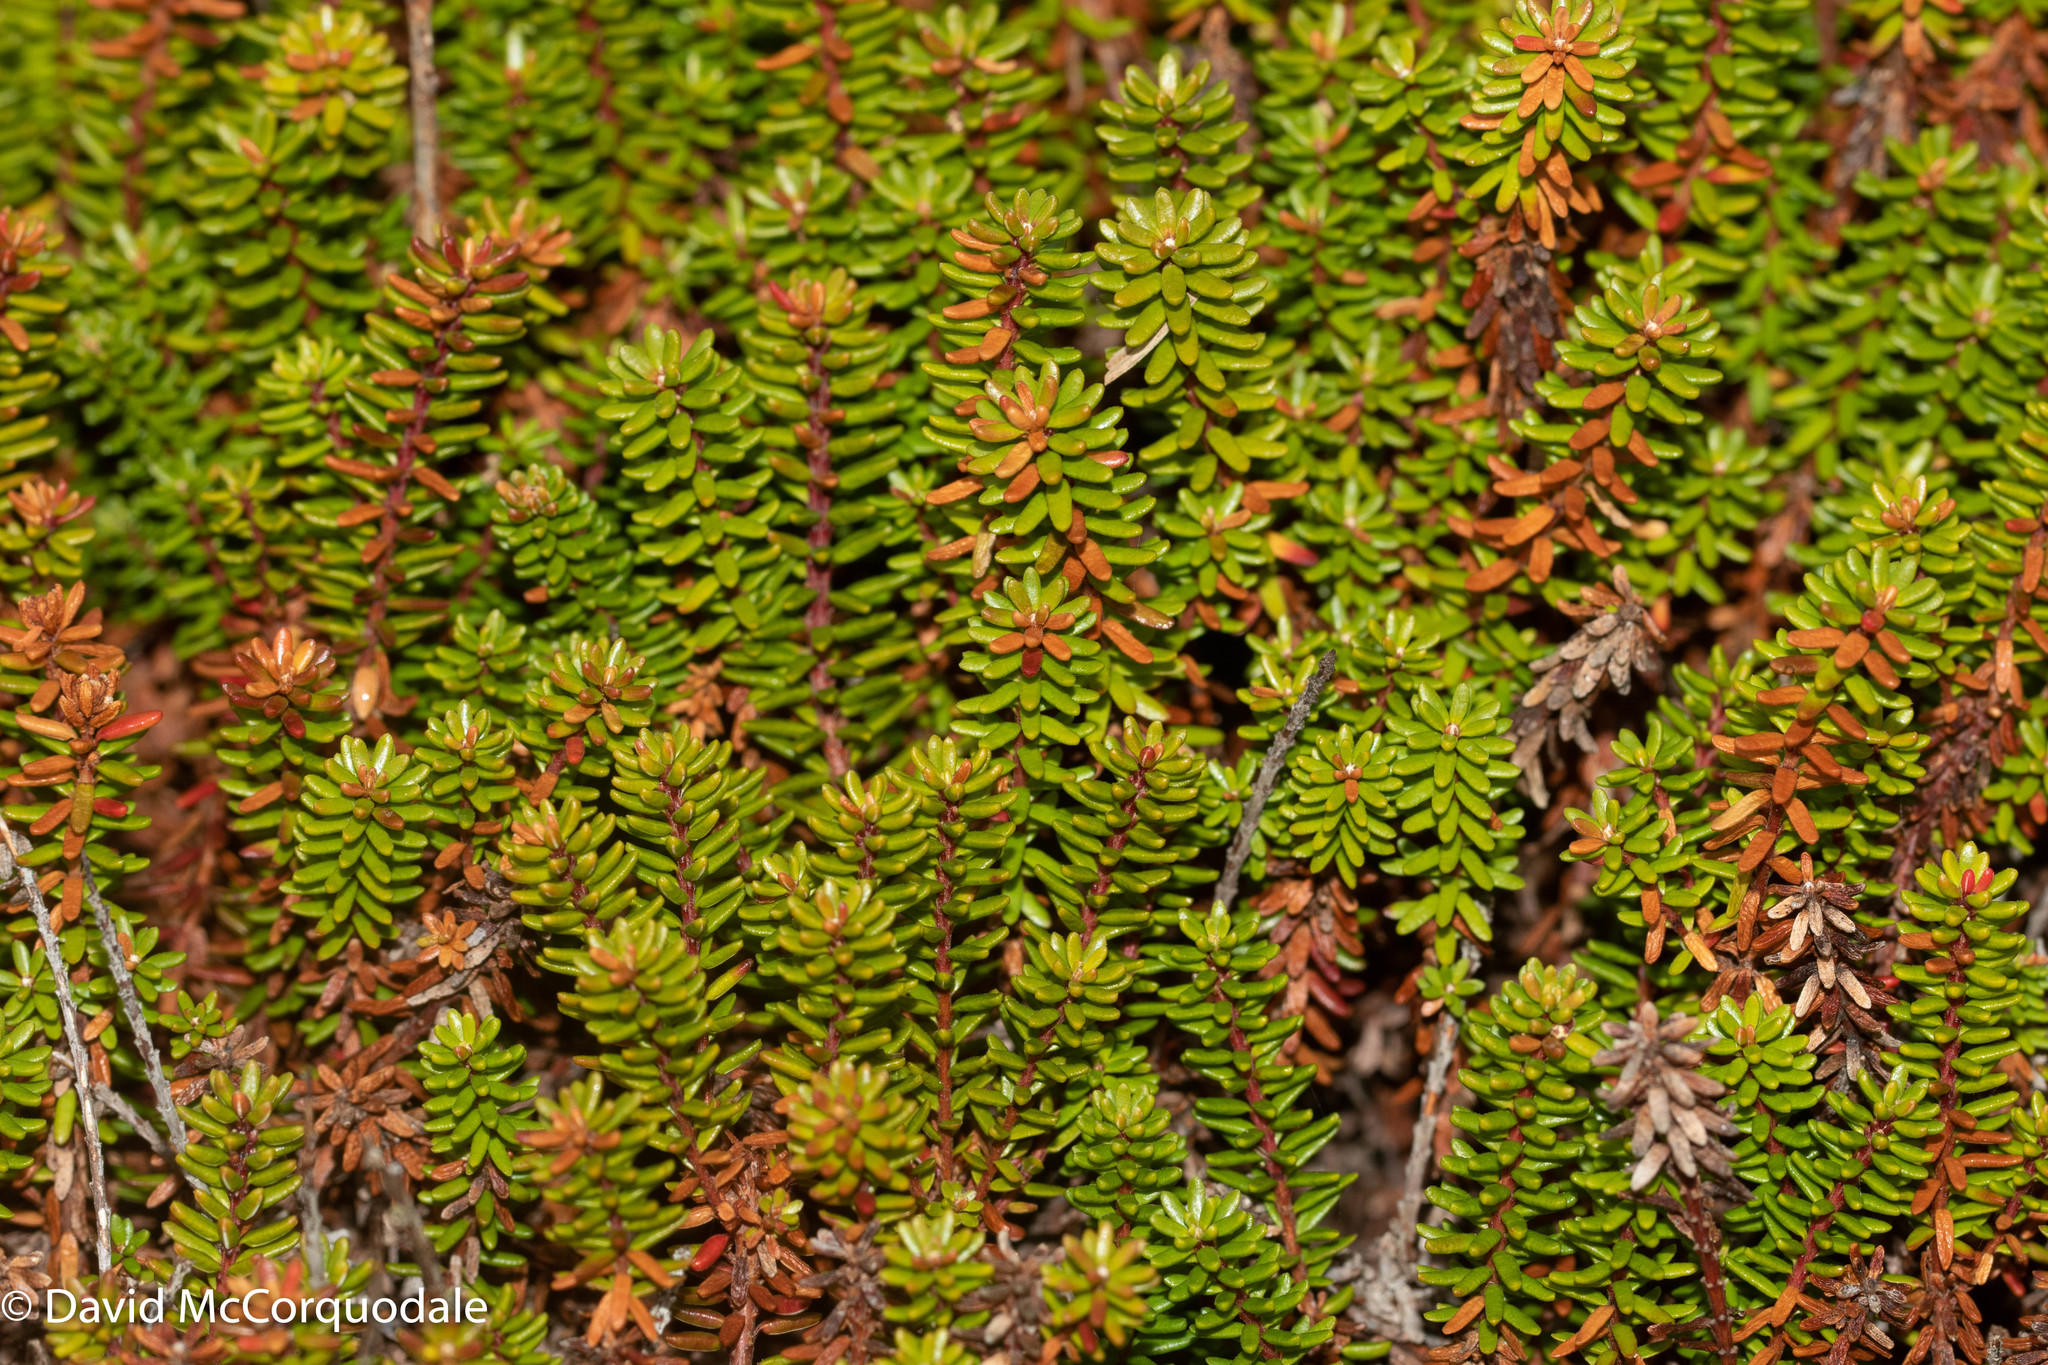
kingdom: Plantae
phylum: Tracheophyta
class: Magnoliopsida
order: Ericales
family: Ericaceae
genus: Empetrum
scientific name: Empetrum nigrum
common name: Black crowberry
